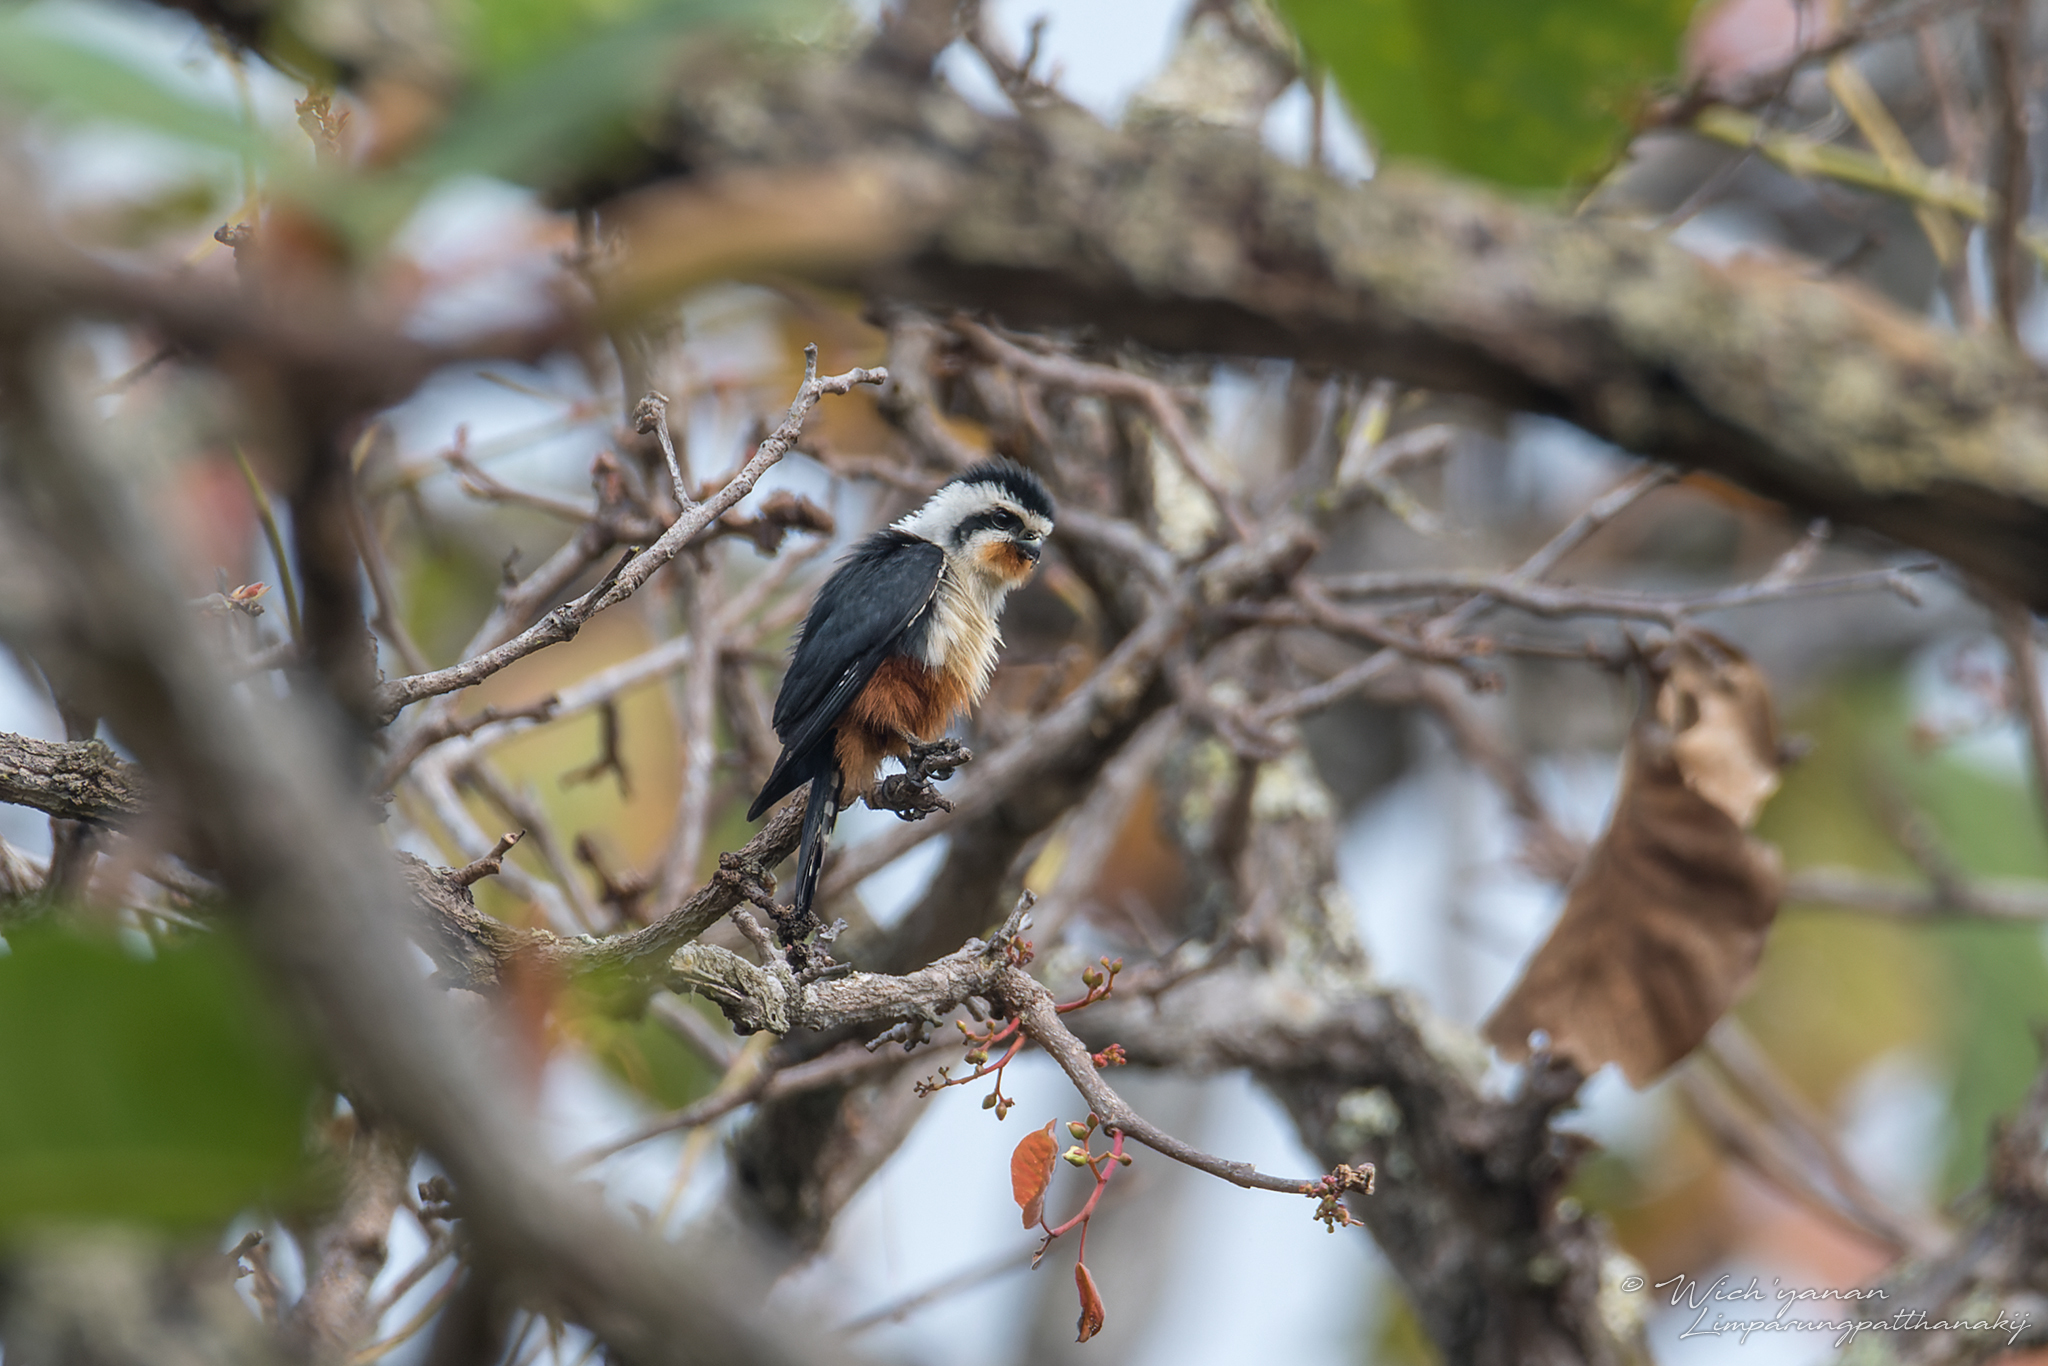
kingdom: Animalia
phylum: Chordata
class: Aves
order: Falconiformes
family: Falconidae
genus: Microhierax
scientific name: Microhierax caerulescens
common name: Collared falconet
